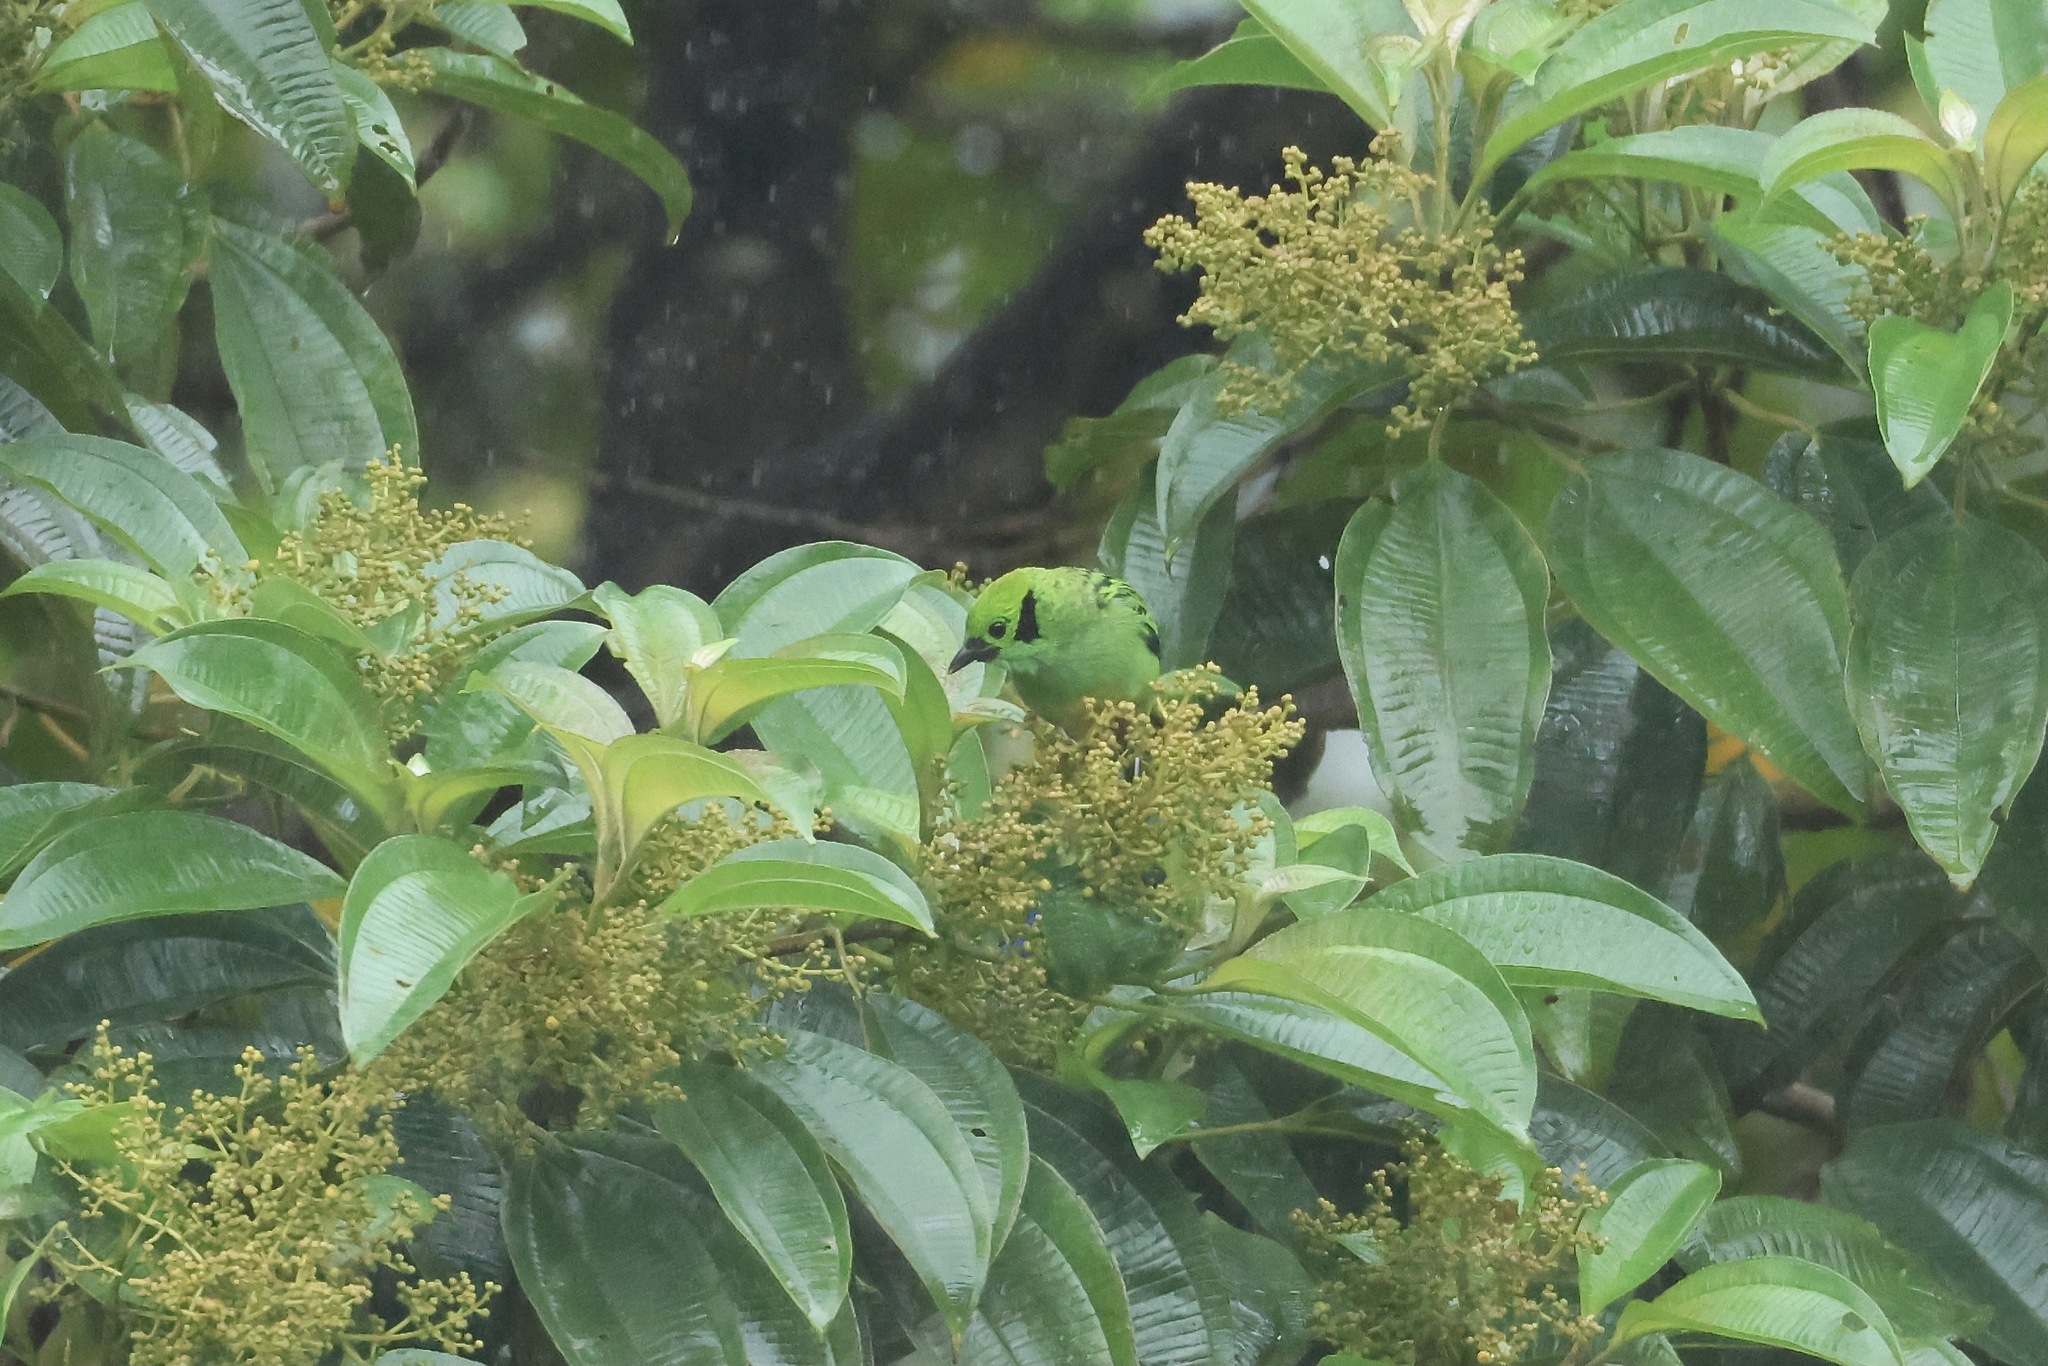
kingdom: Animalia
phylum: Chordata
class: Aves
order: Passeriformes
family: Thraupidae
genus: Tangara
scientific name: Tangara florida
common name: Emerald tanager
